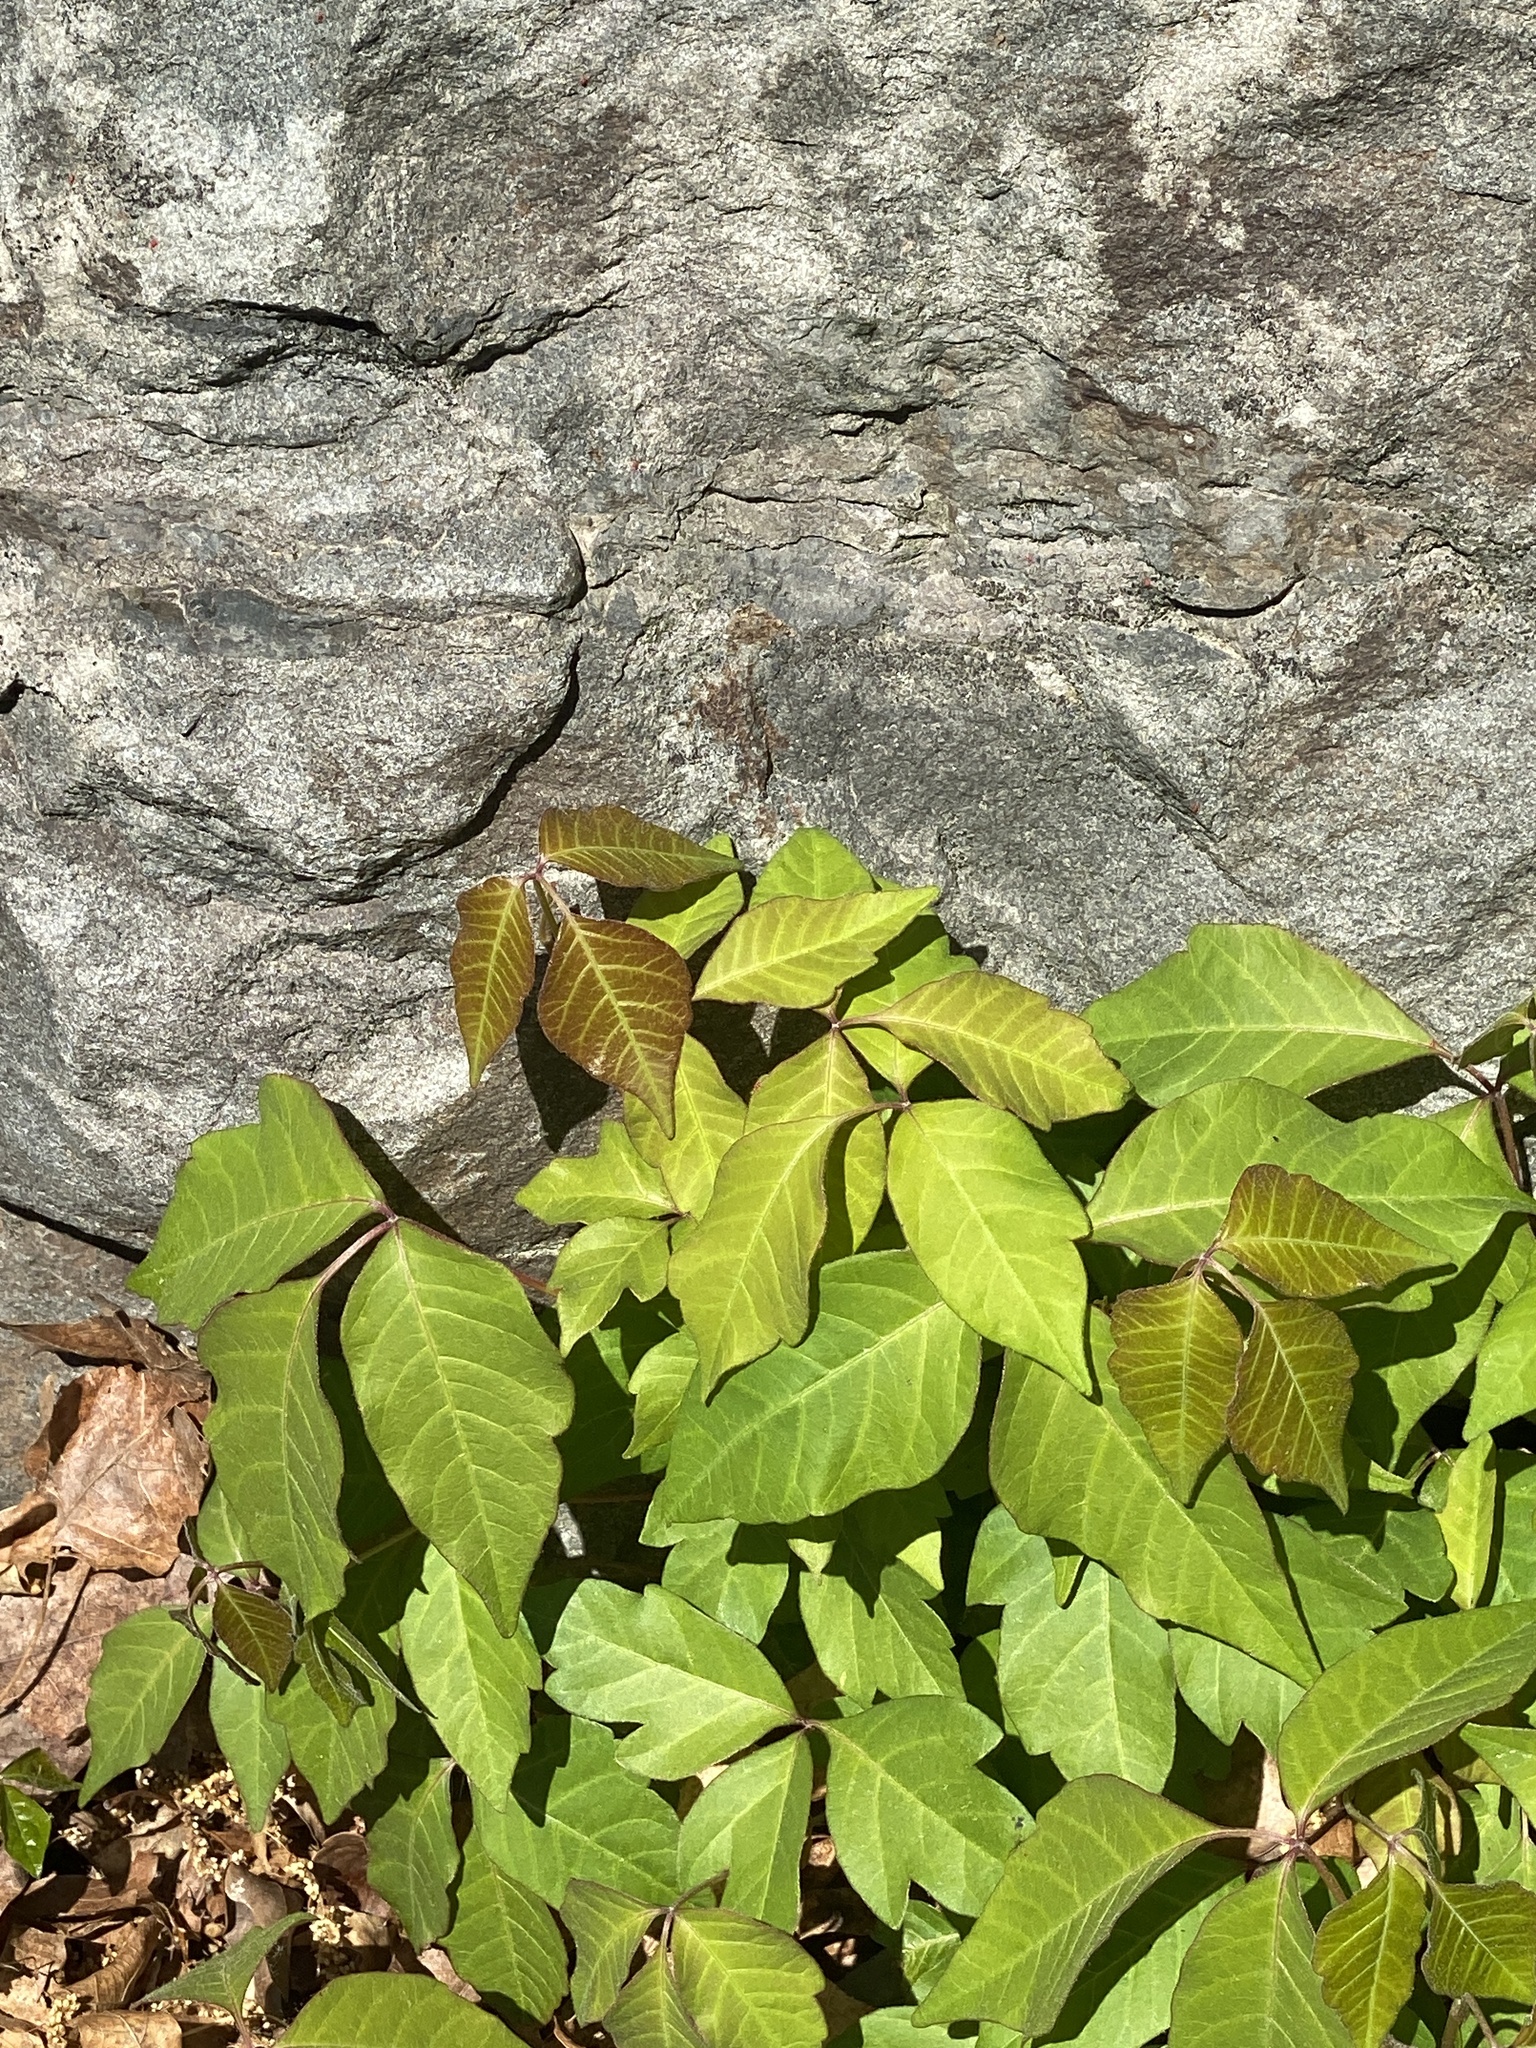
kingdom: Plantae
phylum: Tracheophyta
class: Magnoliopsida
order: Sapindales
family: Anacardiaceae
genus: Toxicodendron
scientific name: Toxicodendron radicans
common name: Poison ivy
